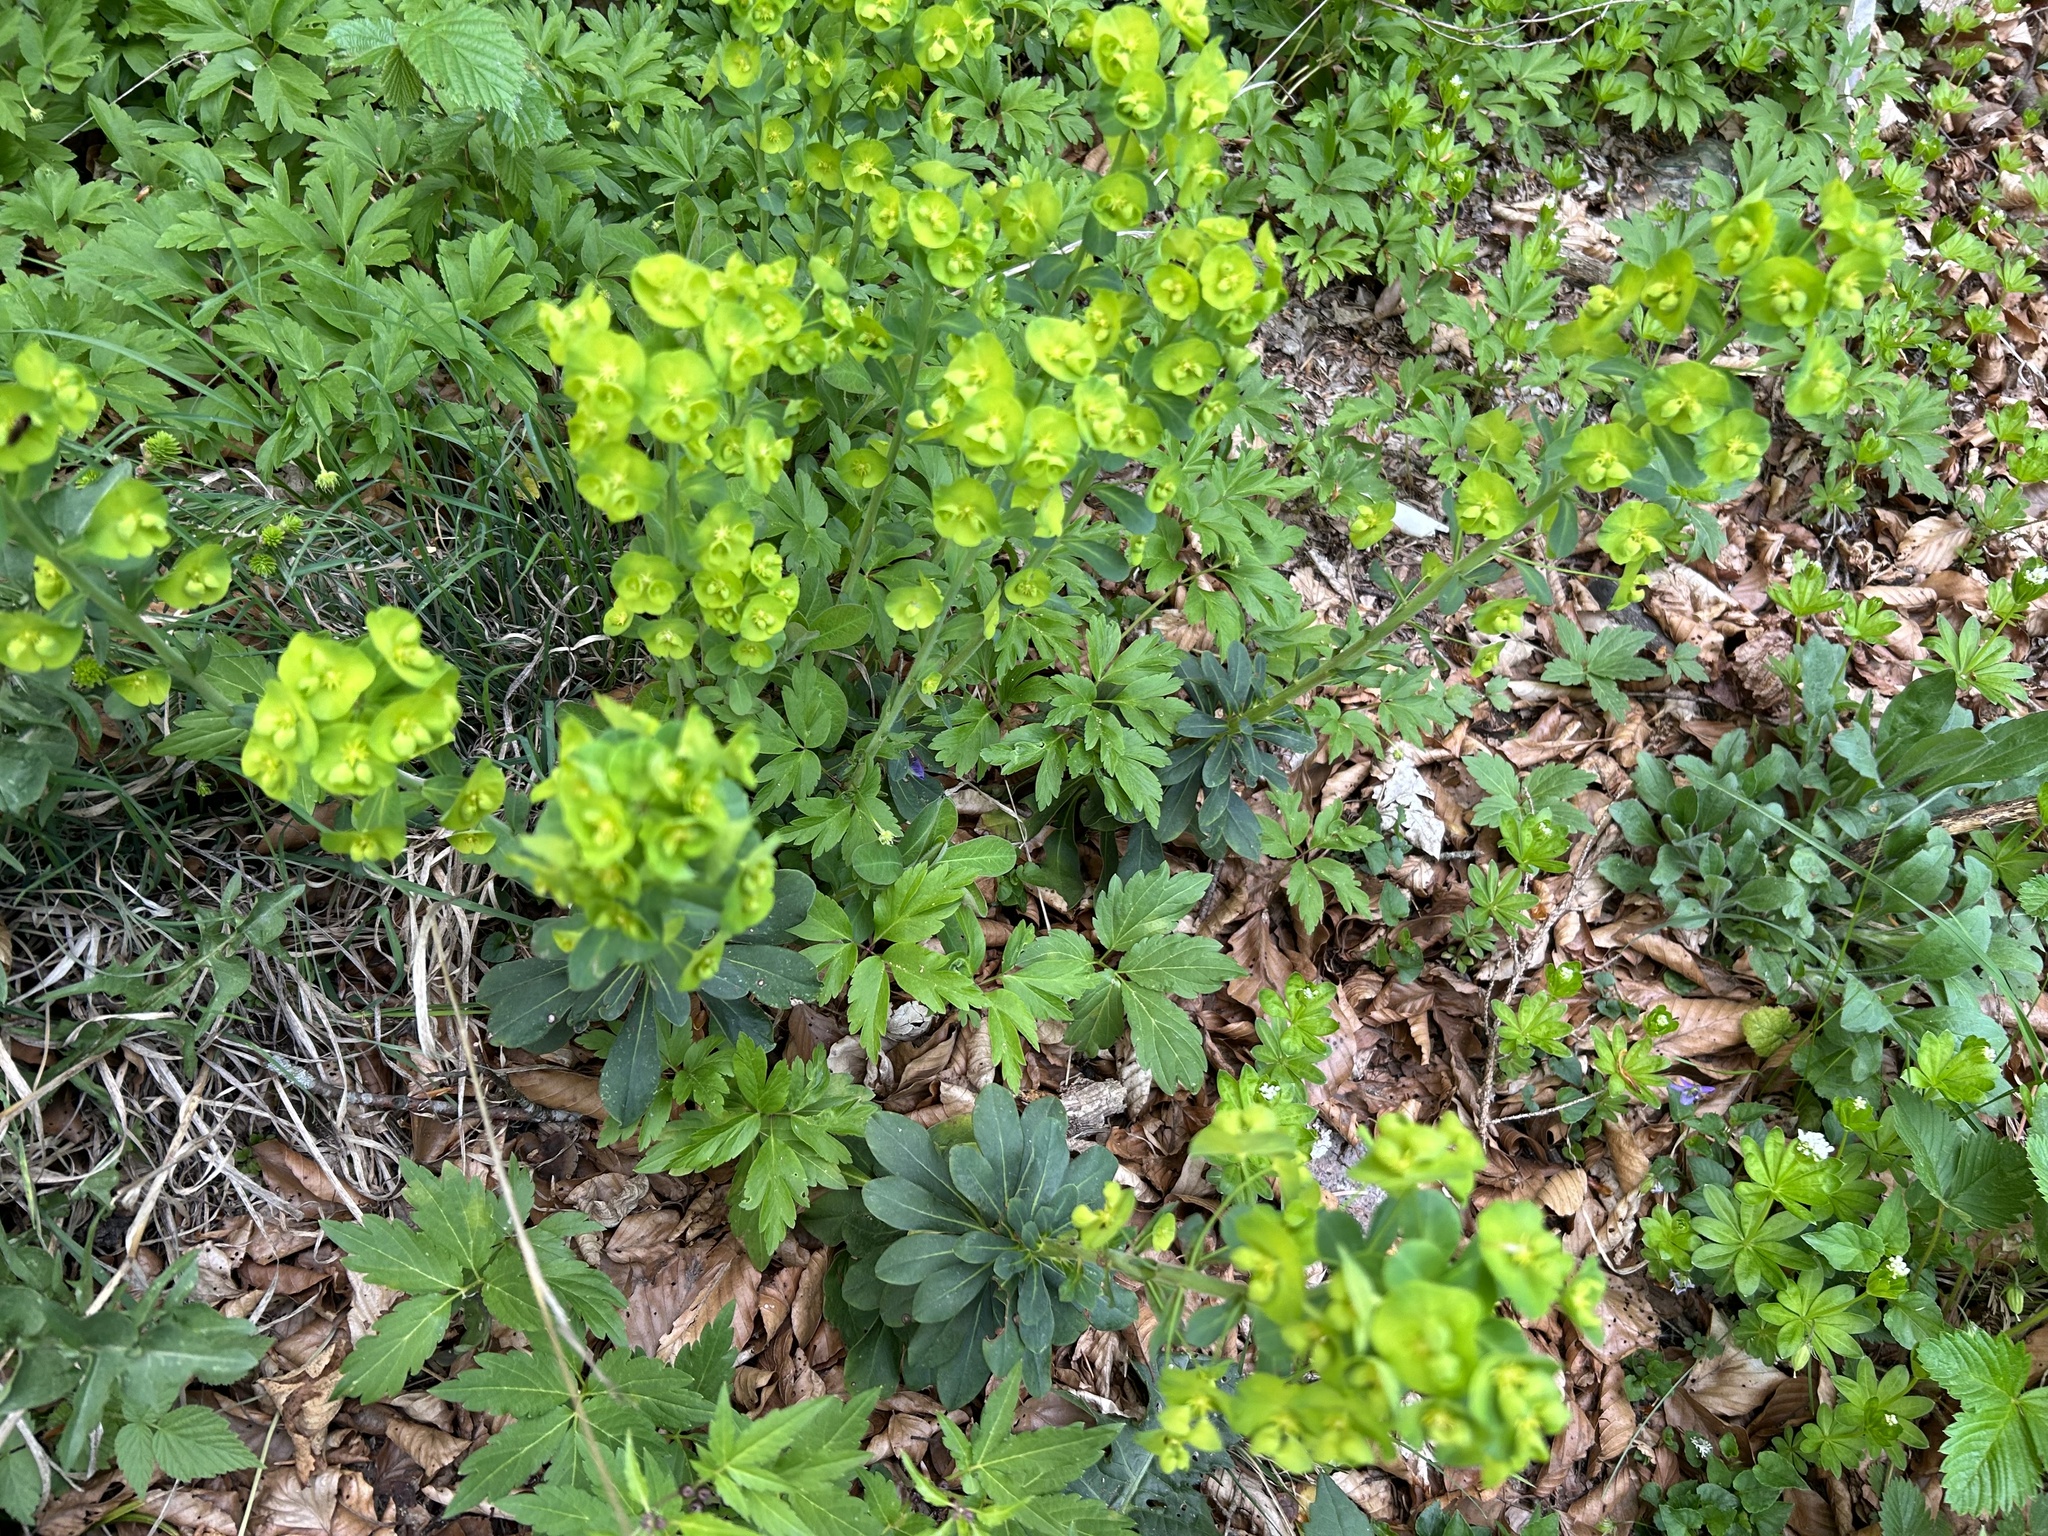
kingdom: Plantae
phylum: Tracheophyta
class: Magnoliopsida
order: Malpighiales
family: Euphorbiaceae
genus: Euphorbia
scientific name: Euphorbia amygdaloides
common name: Wood spurge
